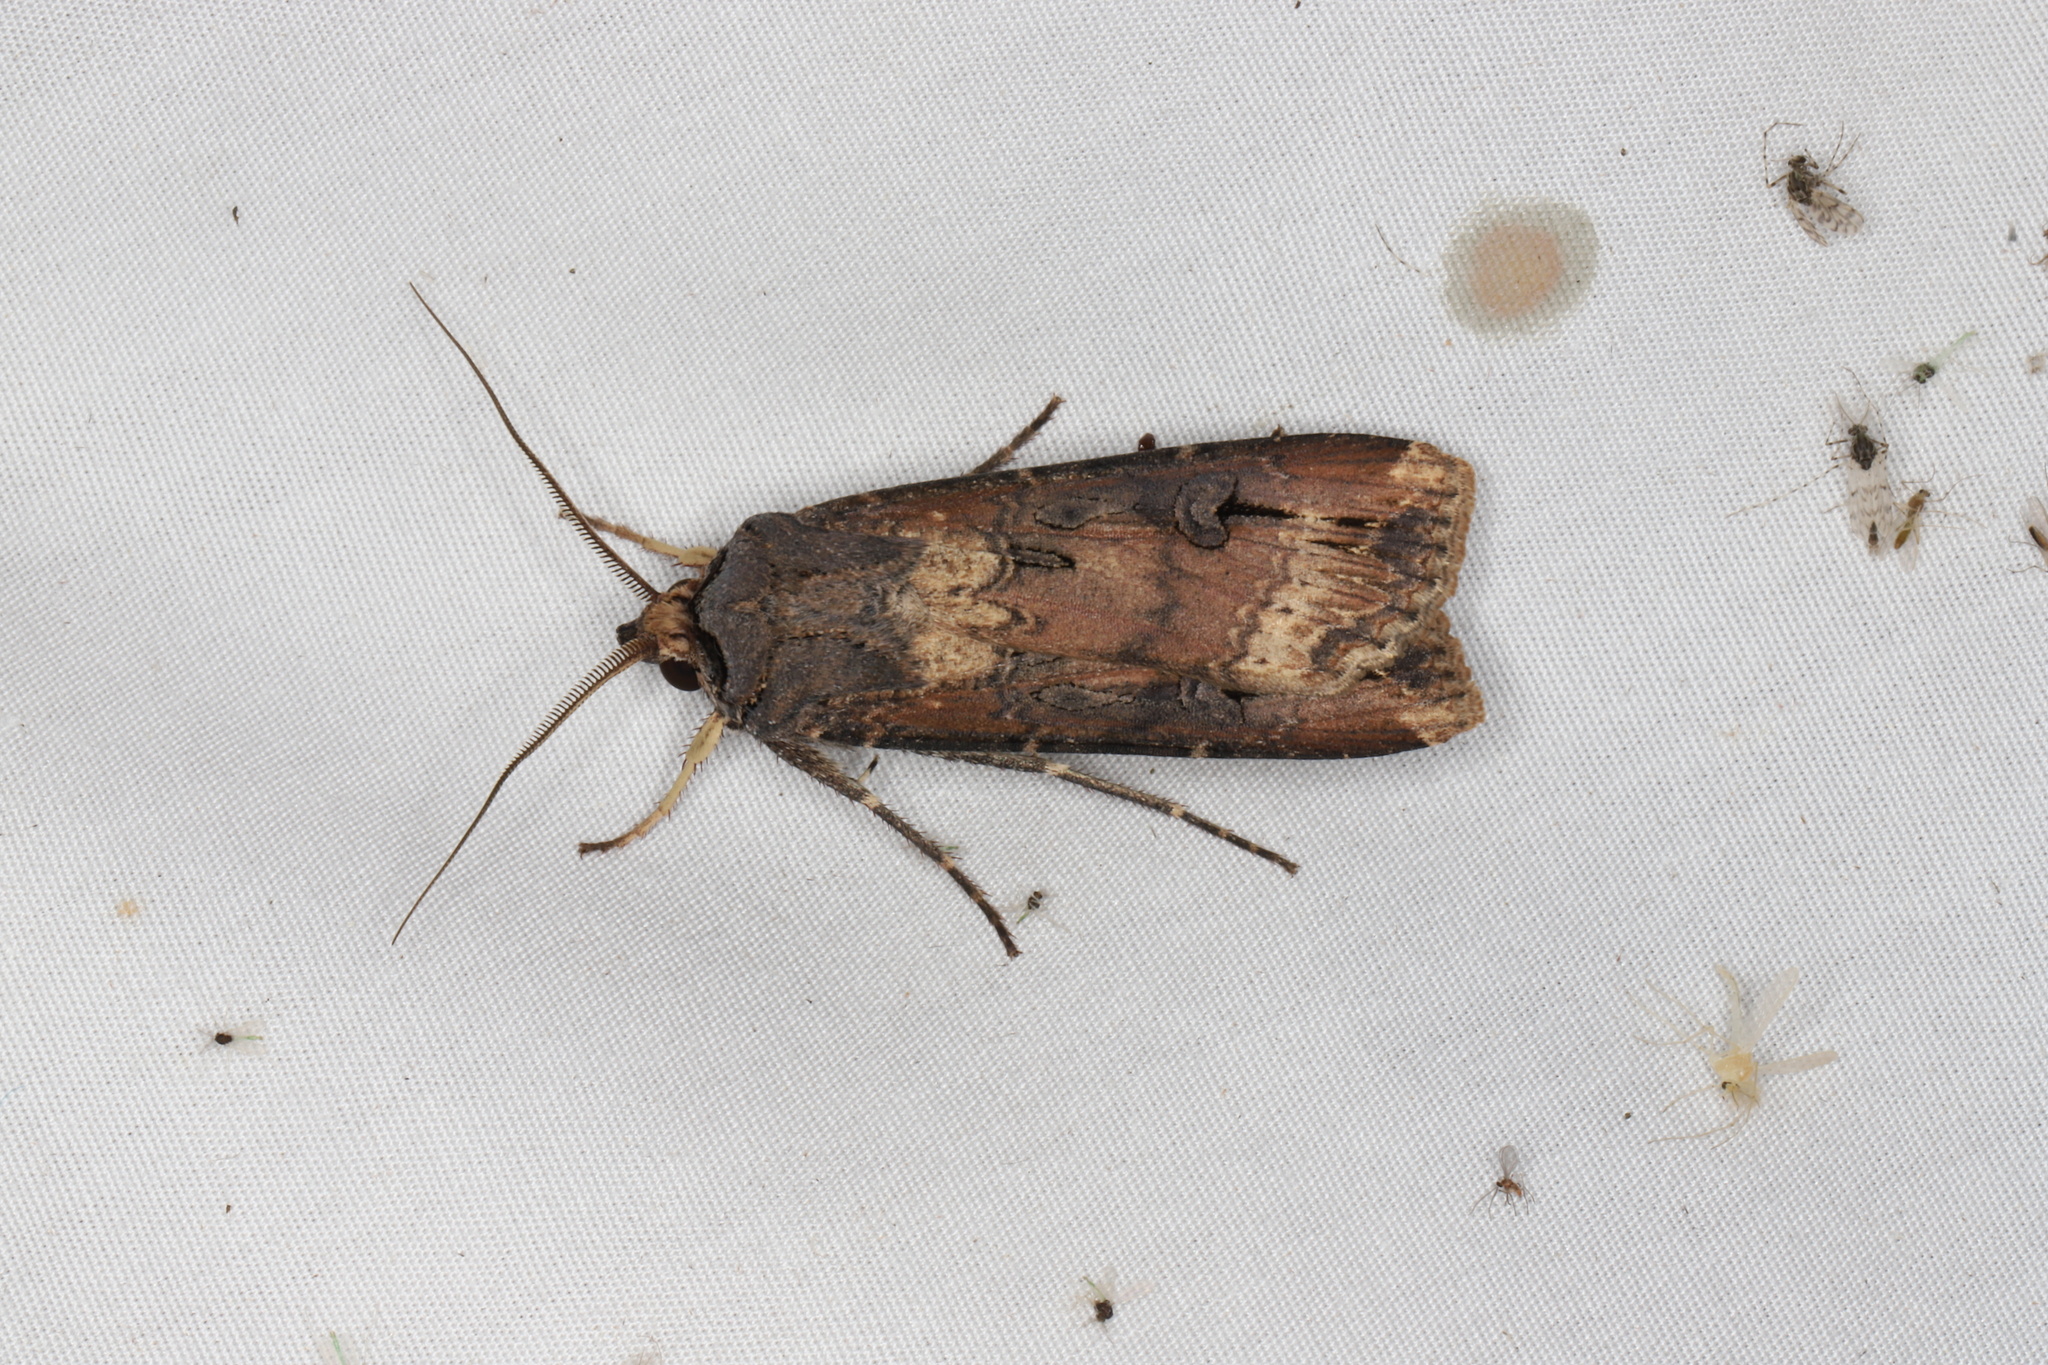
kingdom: Animalia
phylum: Arthropoda
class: Insecta
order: Lepidoptera
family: Noctuidae
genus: Agrotis
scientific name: Agrotis ipsilon
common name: Dark sword-grass
